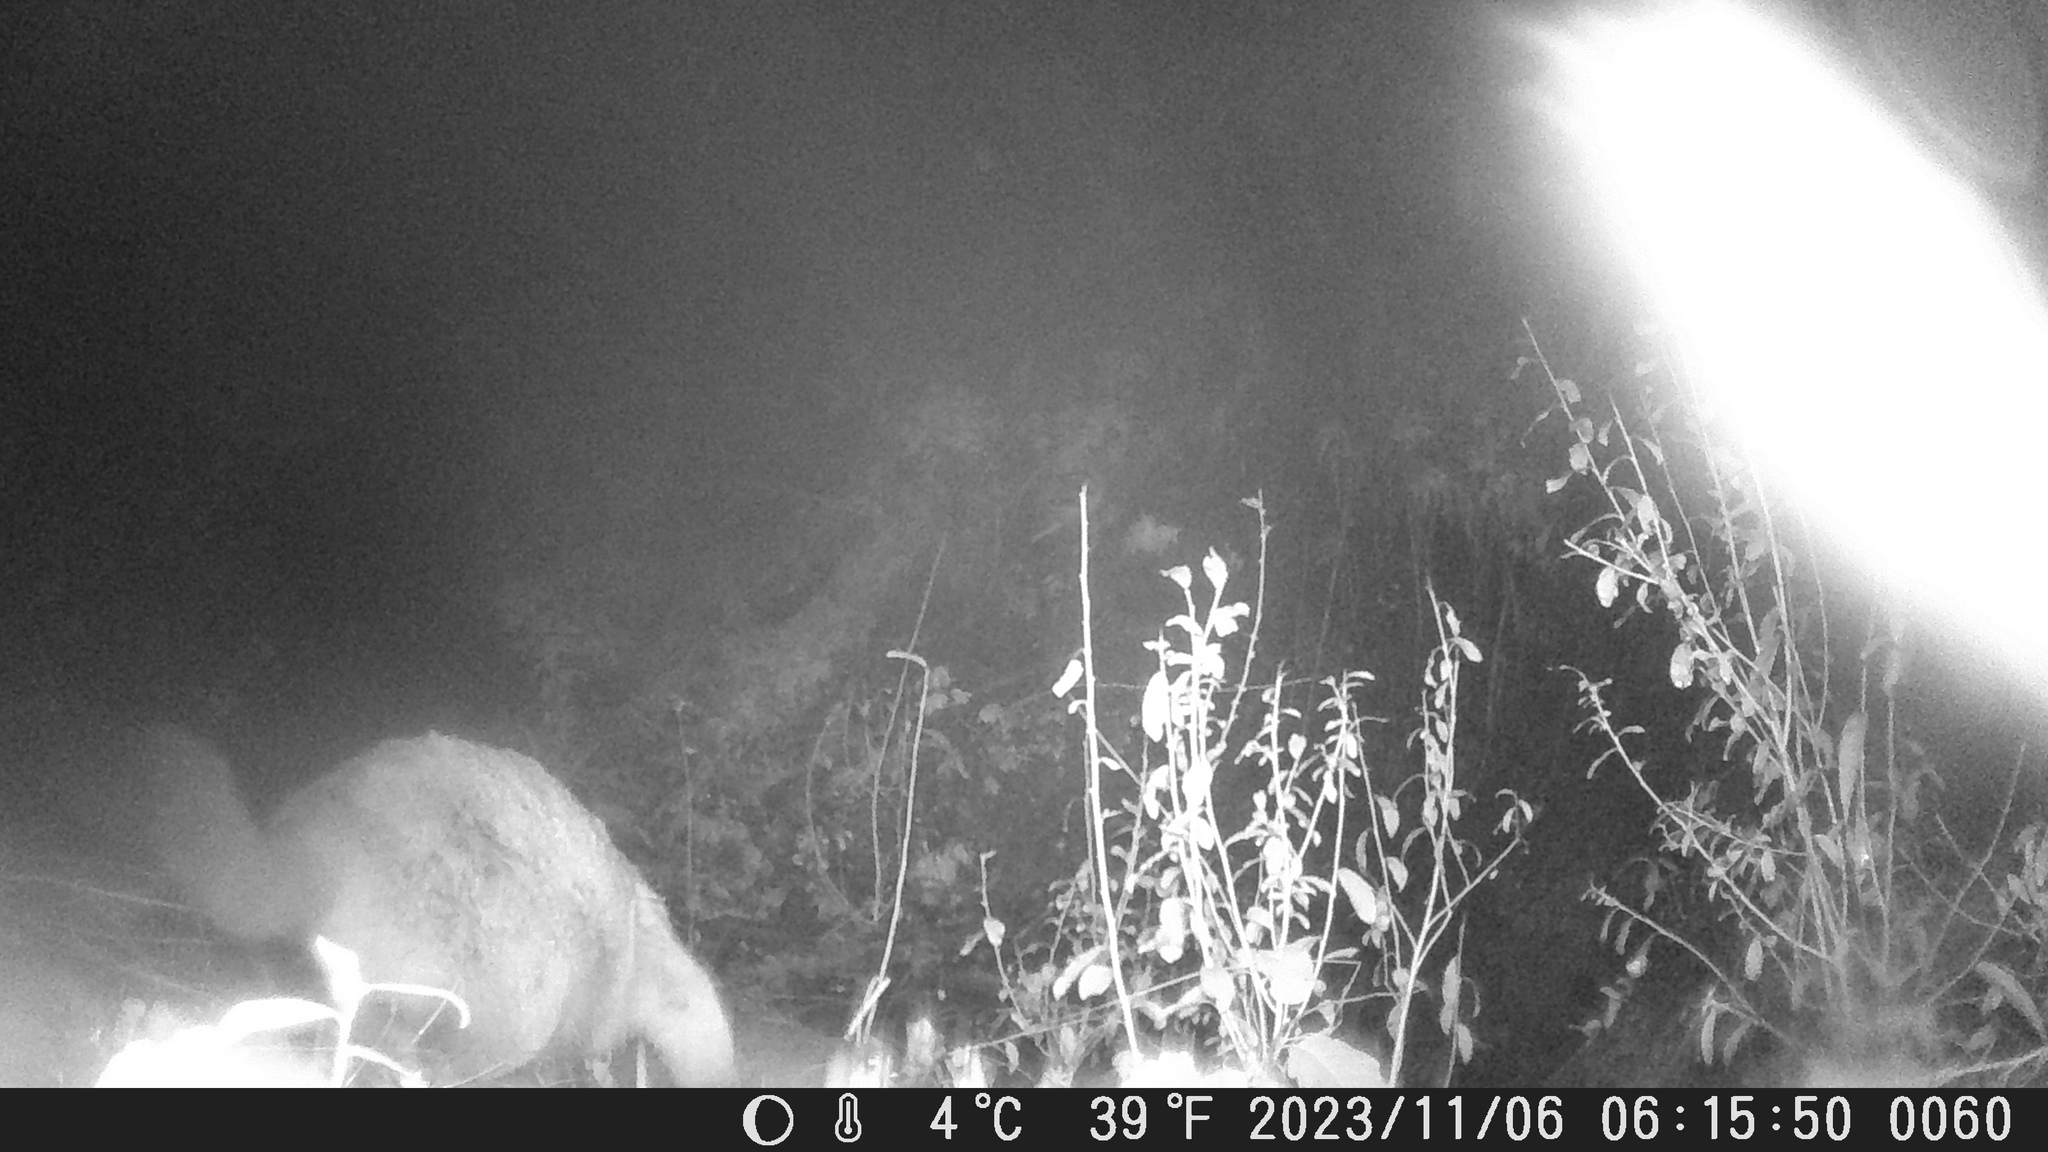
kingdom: Animalia
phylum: Chordata
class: Mammalia
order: Carnivora
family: Felidae
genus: Puma
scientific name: Puma concolor
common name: Puma
